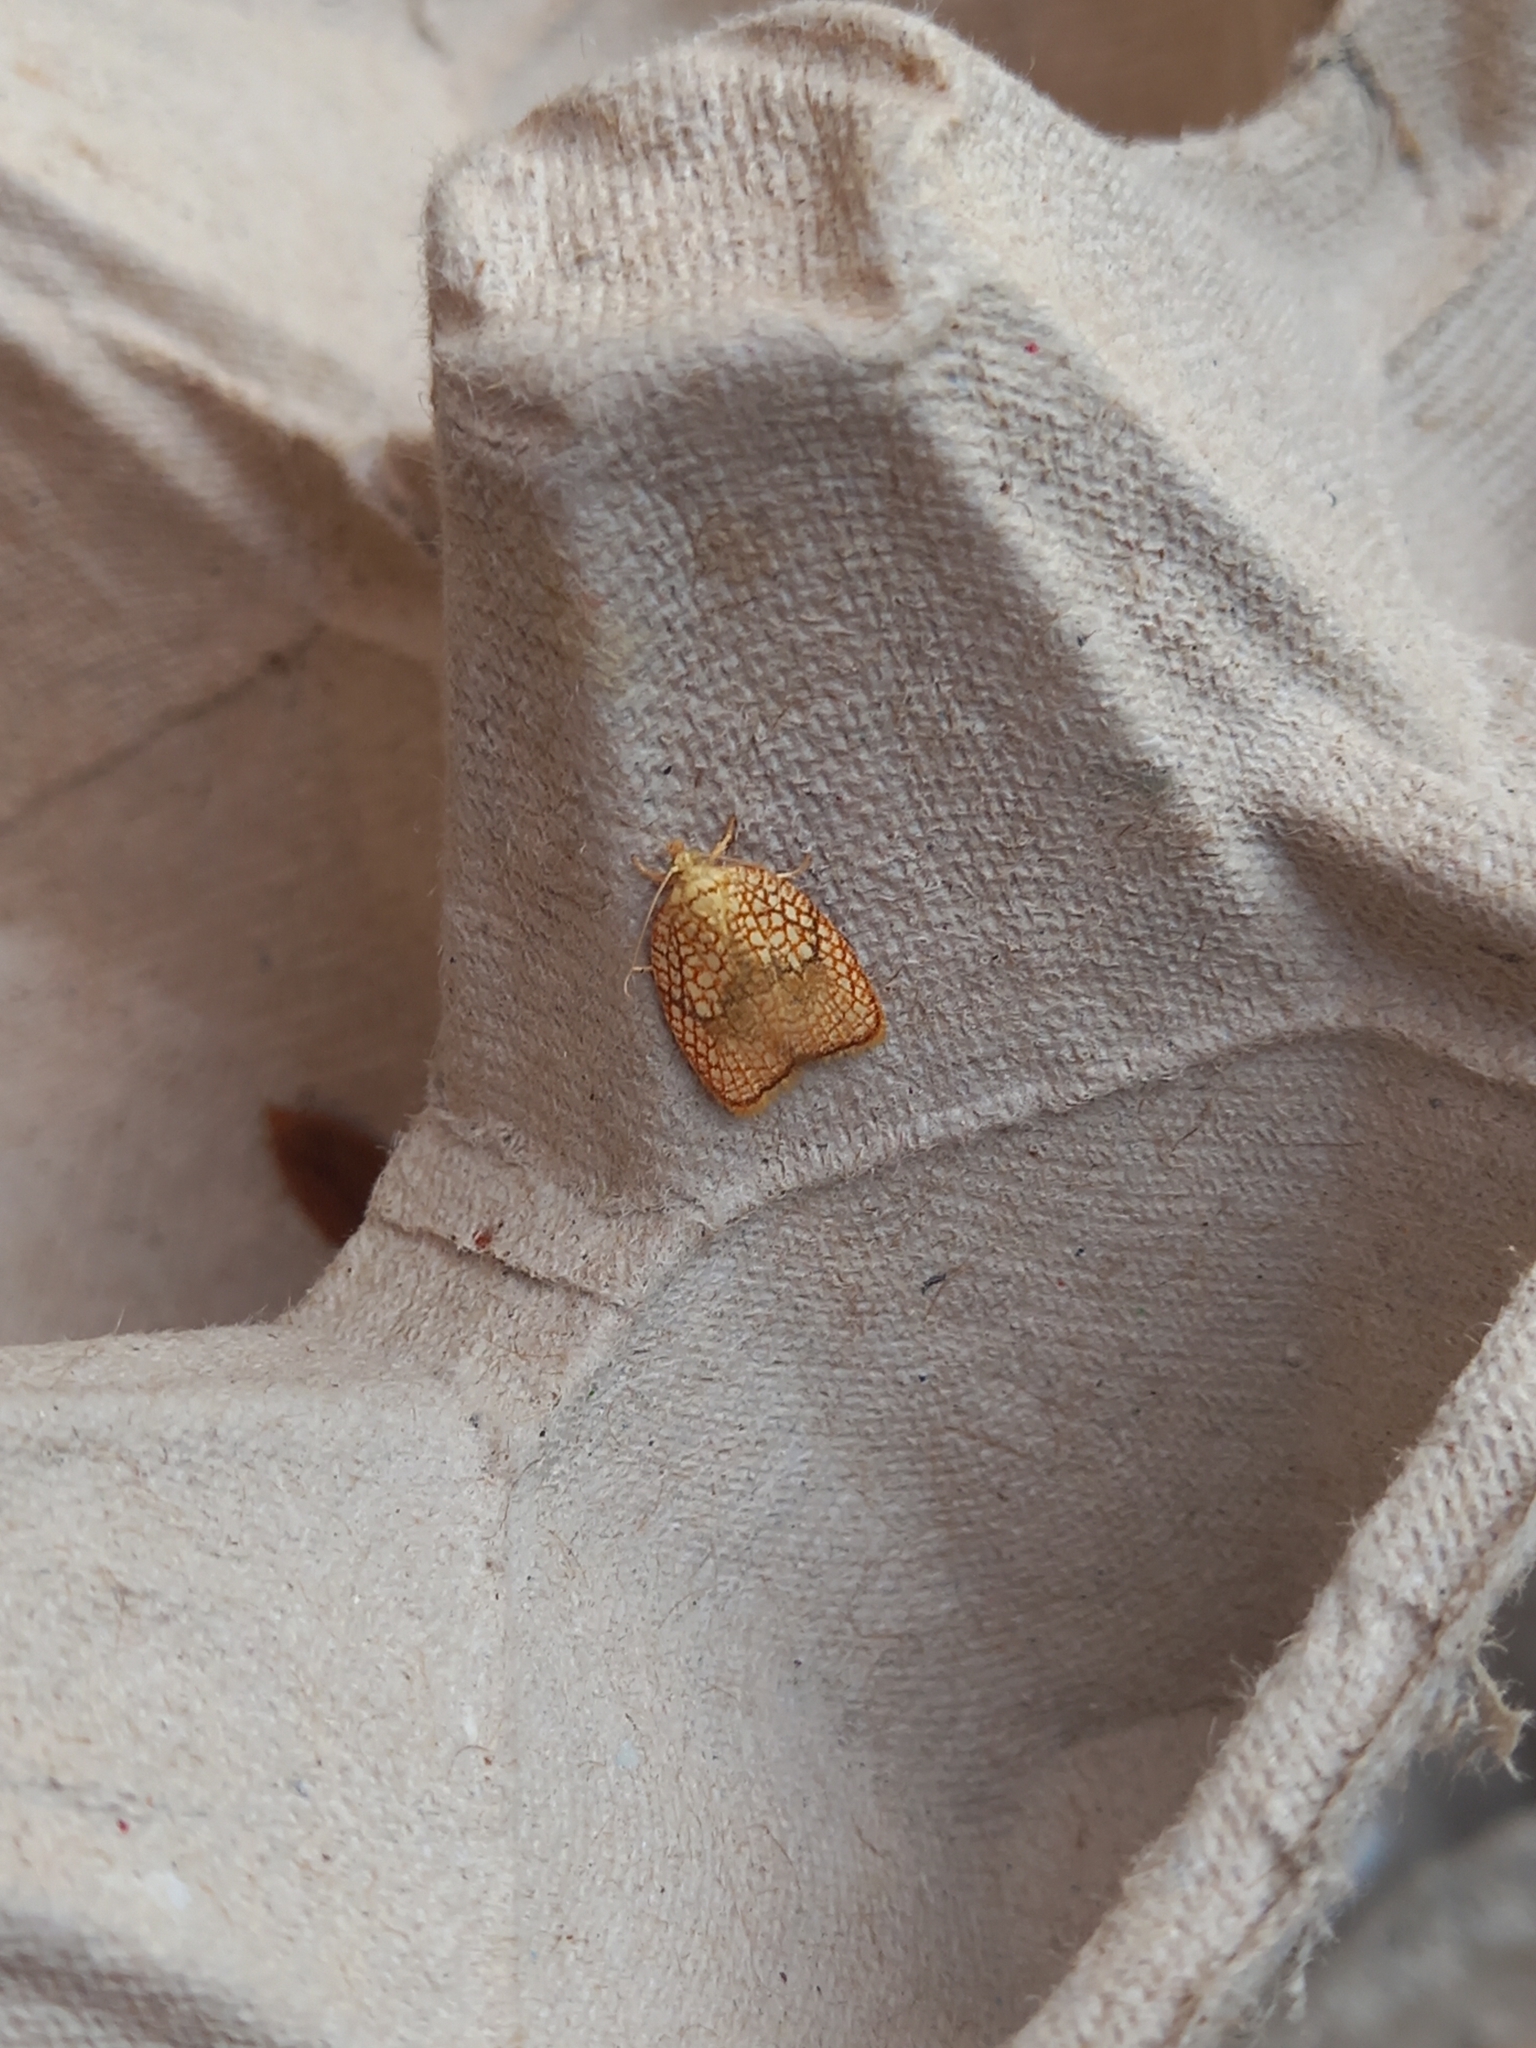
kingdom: Animalia
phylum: Arthropoda
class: Insecta
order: Lepidoptera
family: Tortricidae
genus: Acleris
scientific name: Acleris forsskaleana
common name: Maple button
